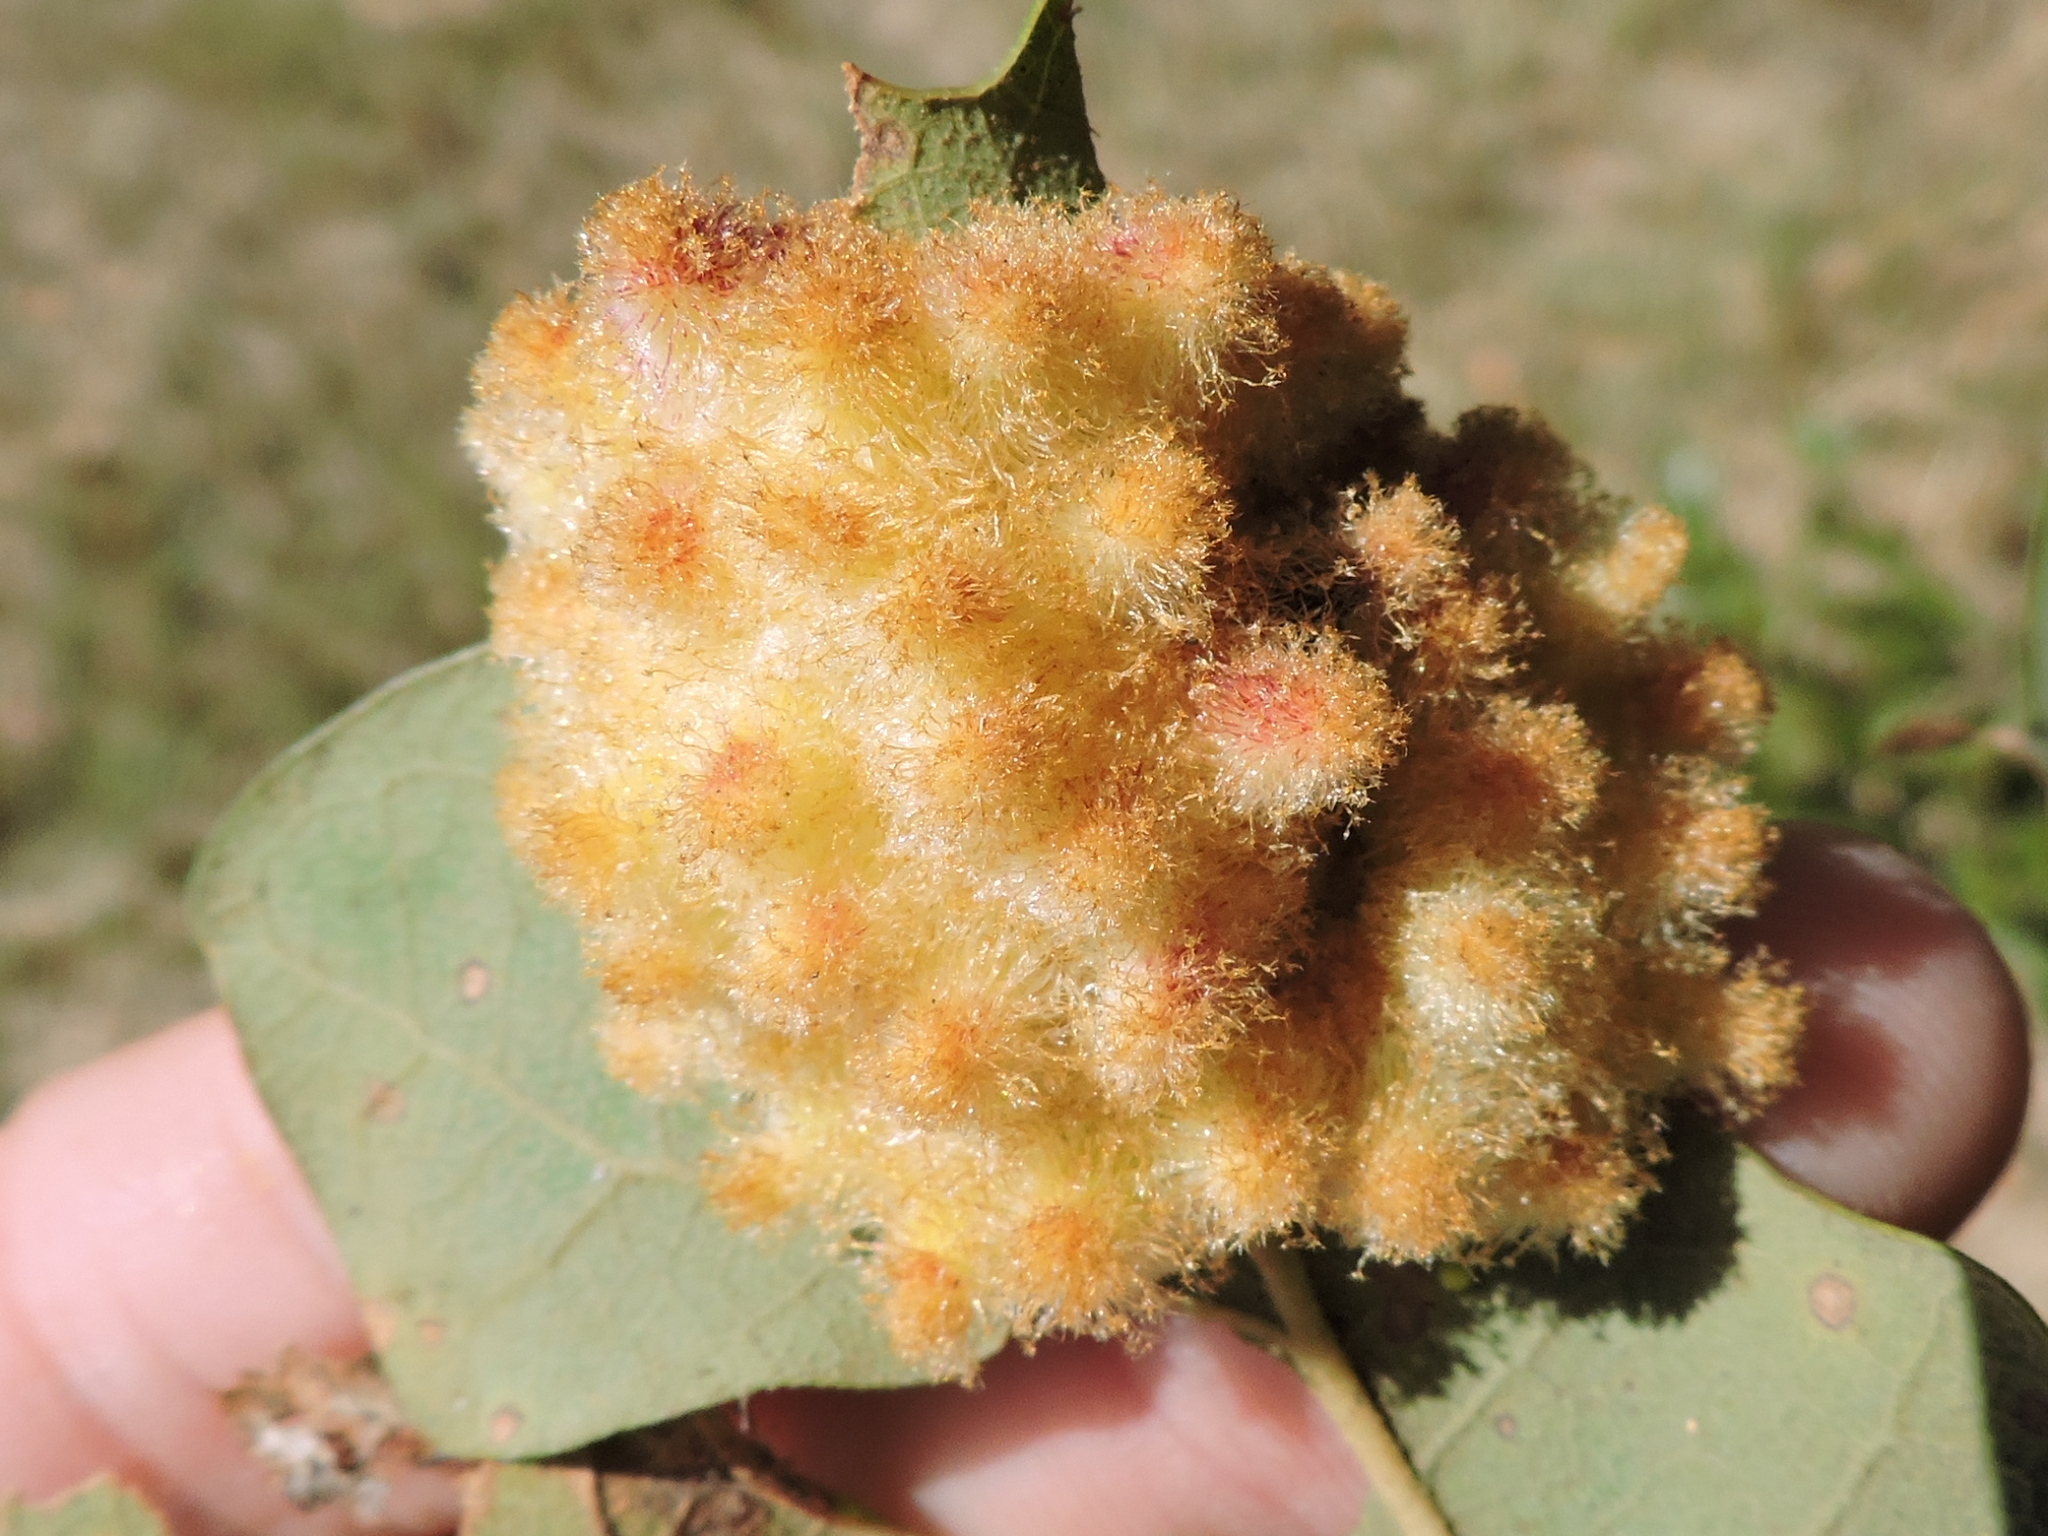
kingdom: Animalia
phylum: Arthropoda
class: Insecta
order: Hymenoptera
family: Cynipidae
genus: Andricus
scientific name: Andricus
